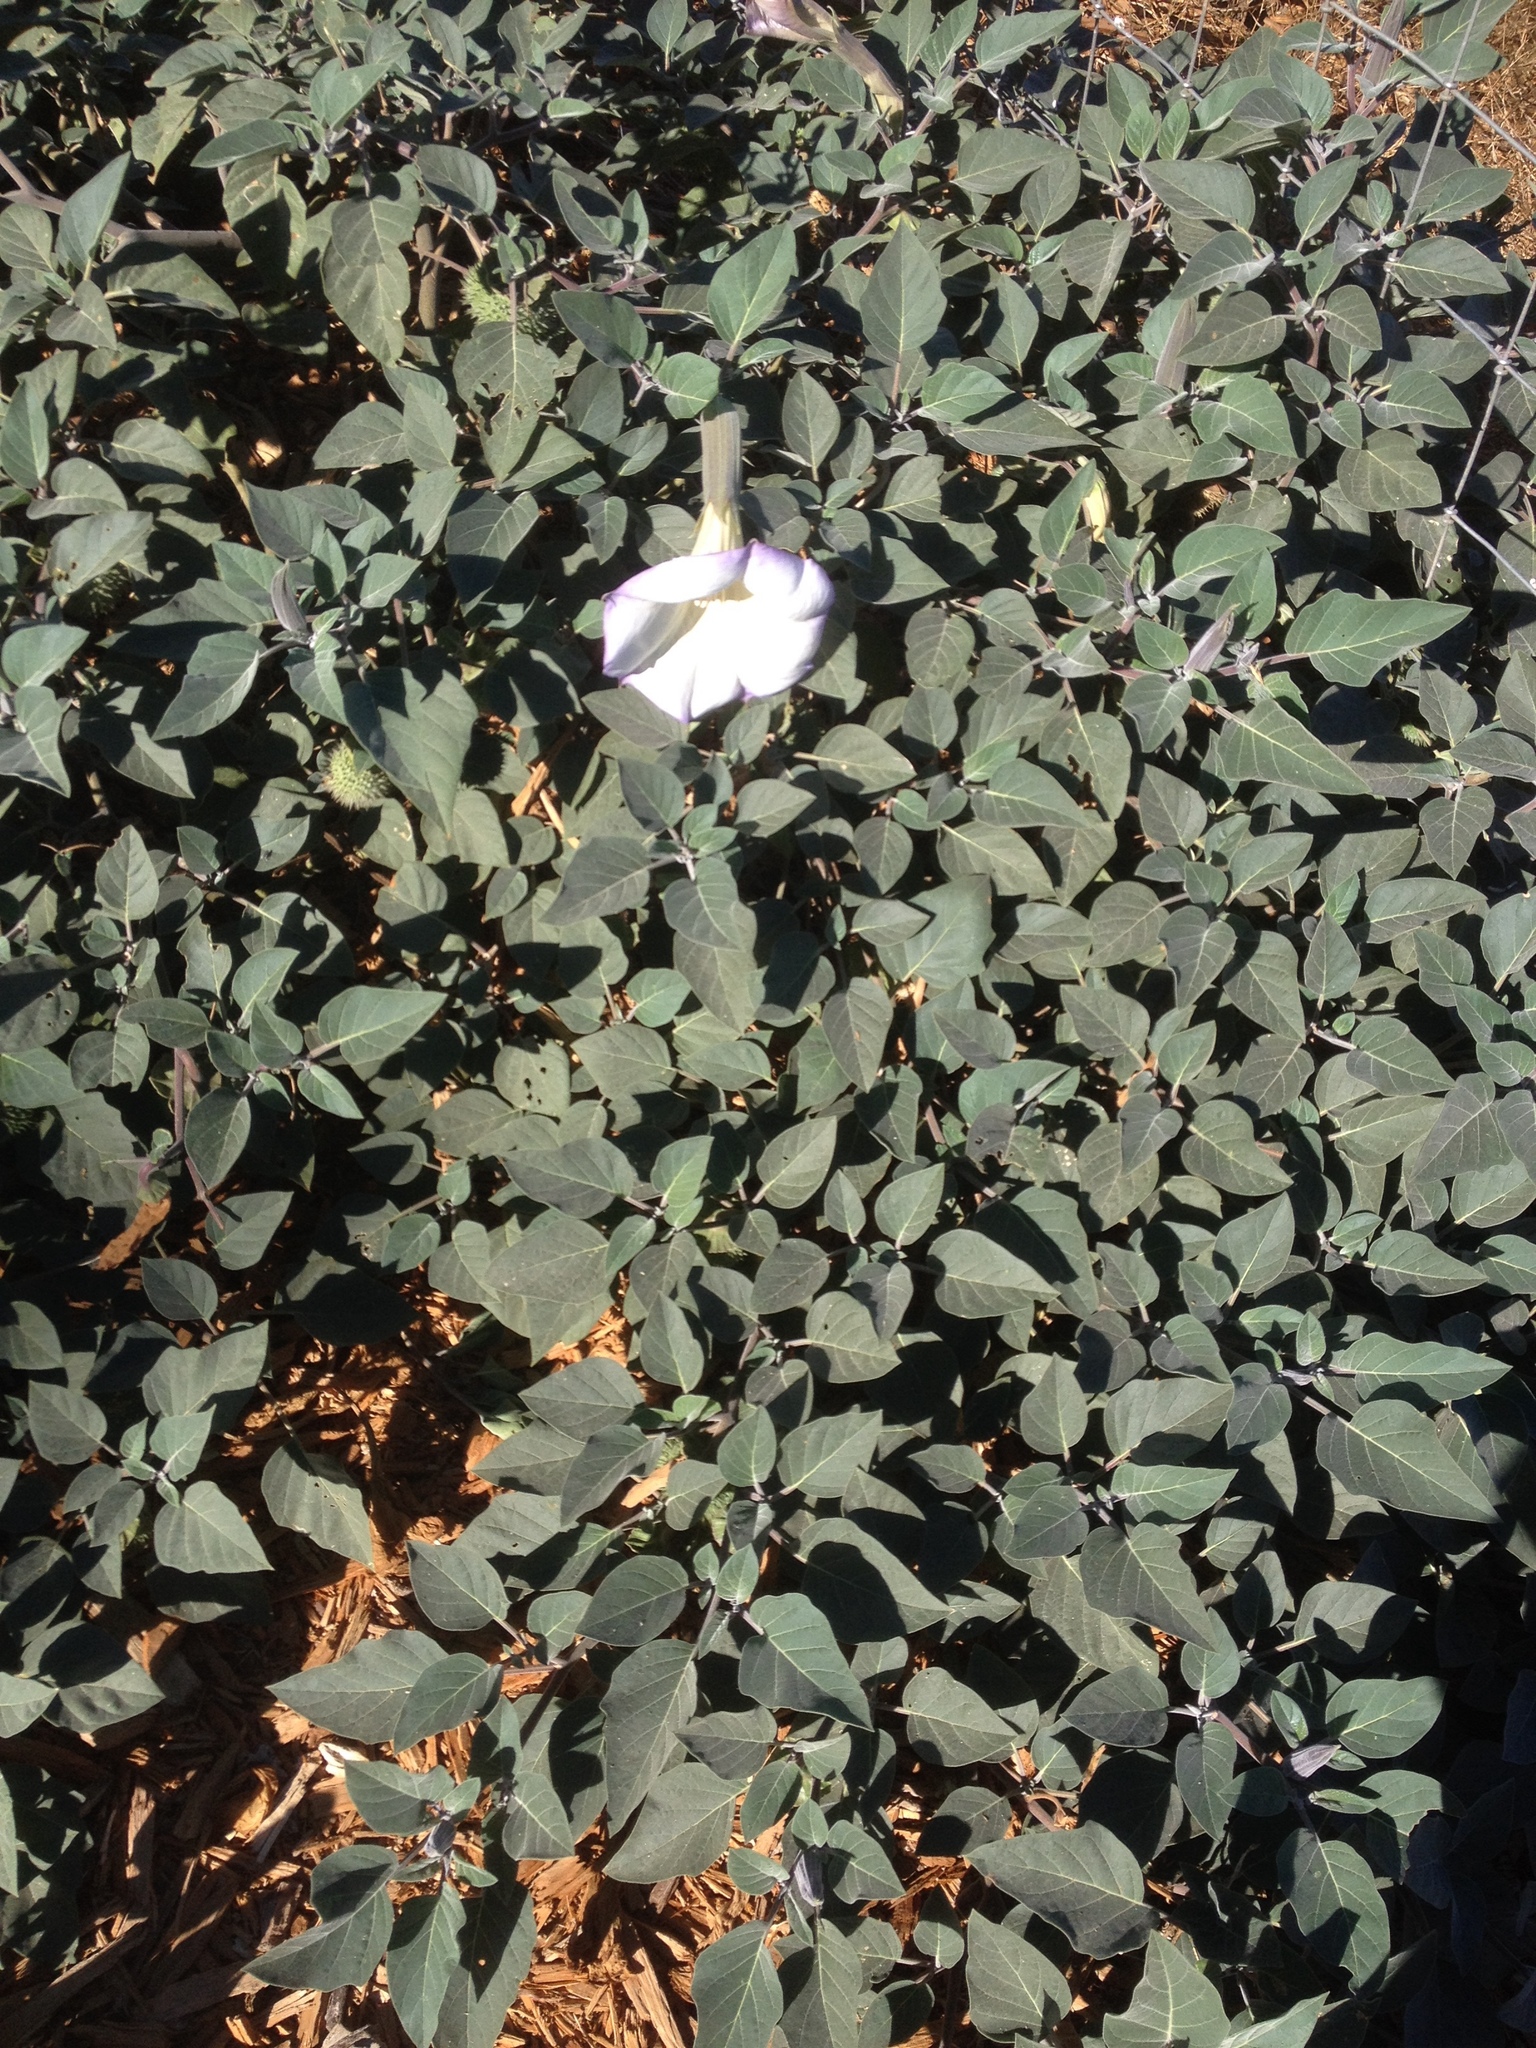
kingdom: Plantae
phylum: Tracheophyta
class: Magnoliopsida
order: Solanales
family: Solanaceae
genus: Datura
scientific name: Datura wrightii
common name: Sacred thorn-apple
